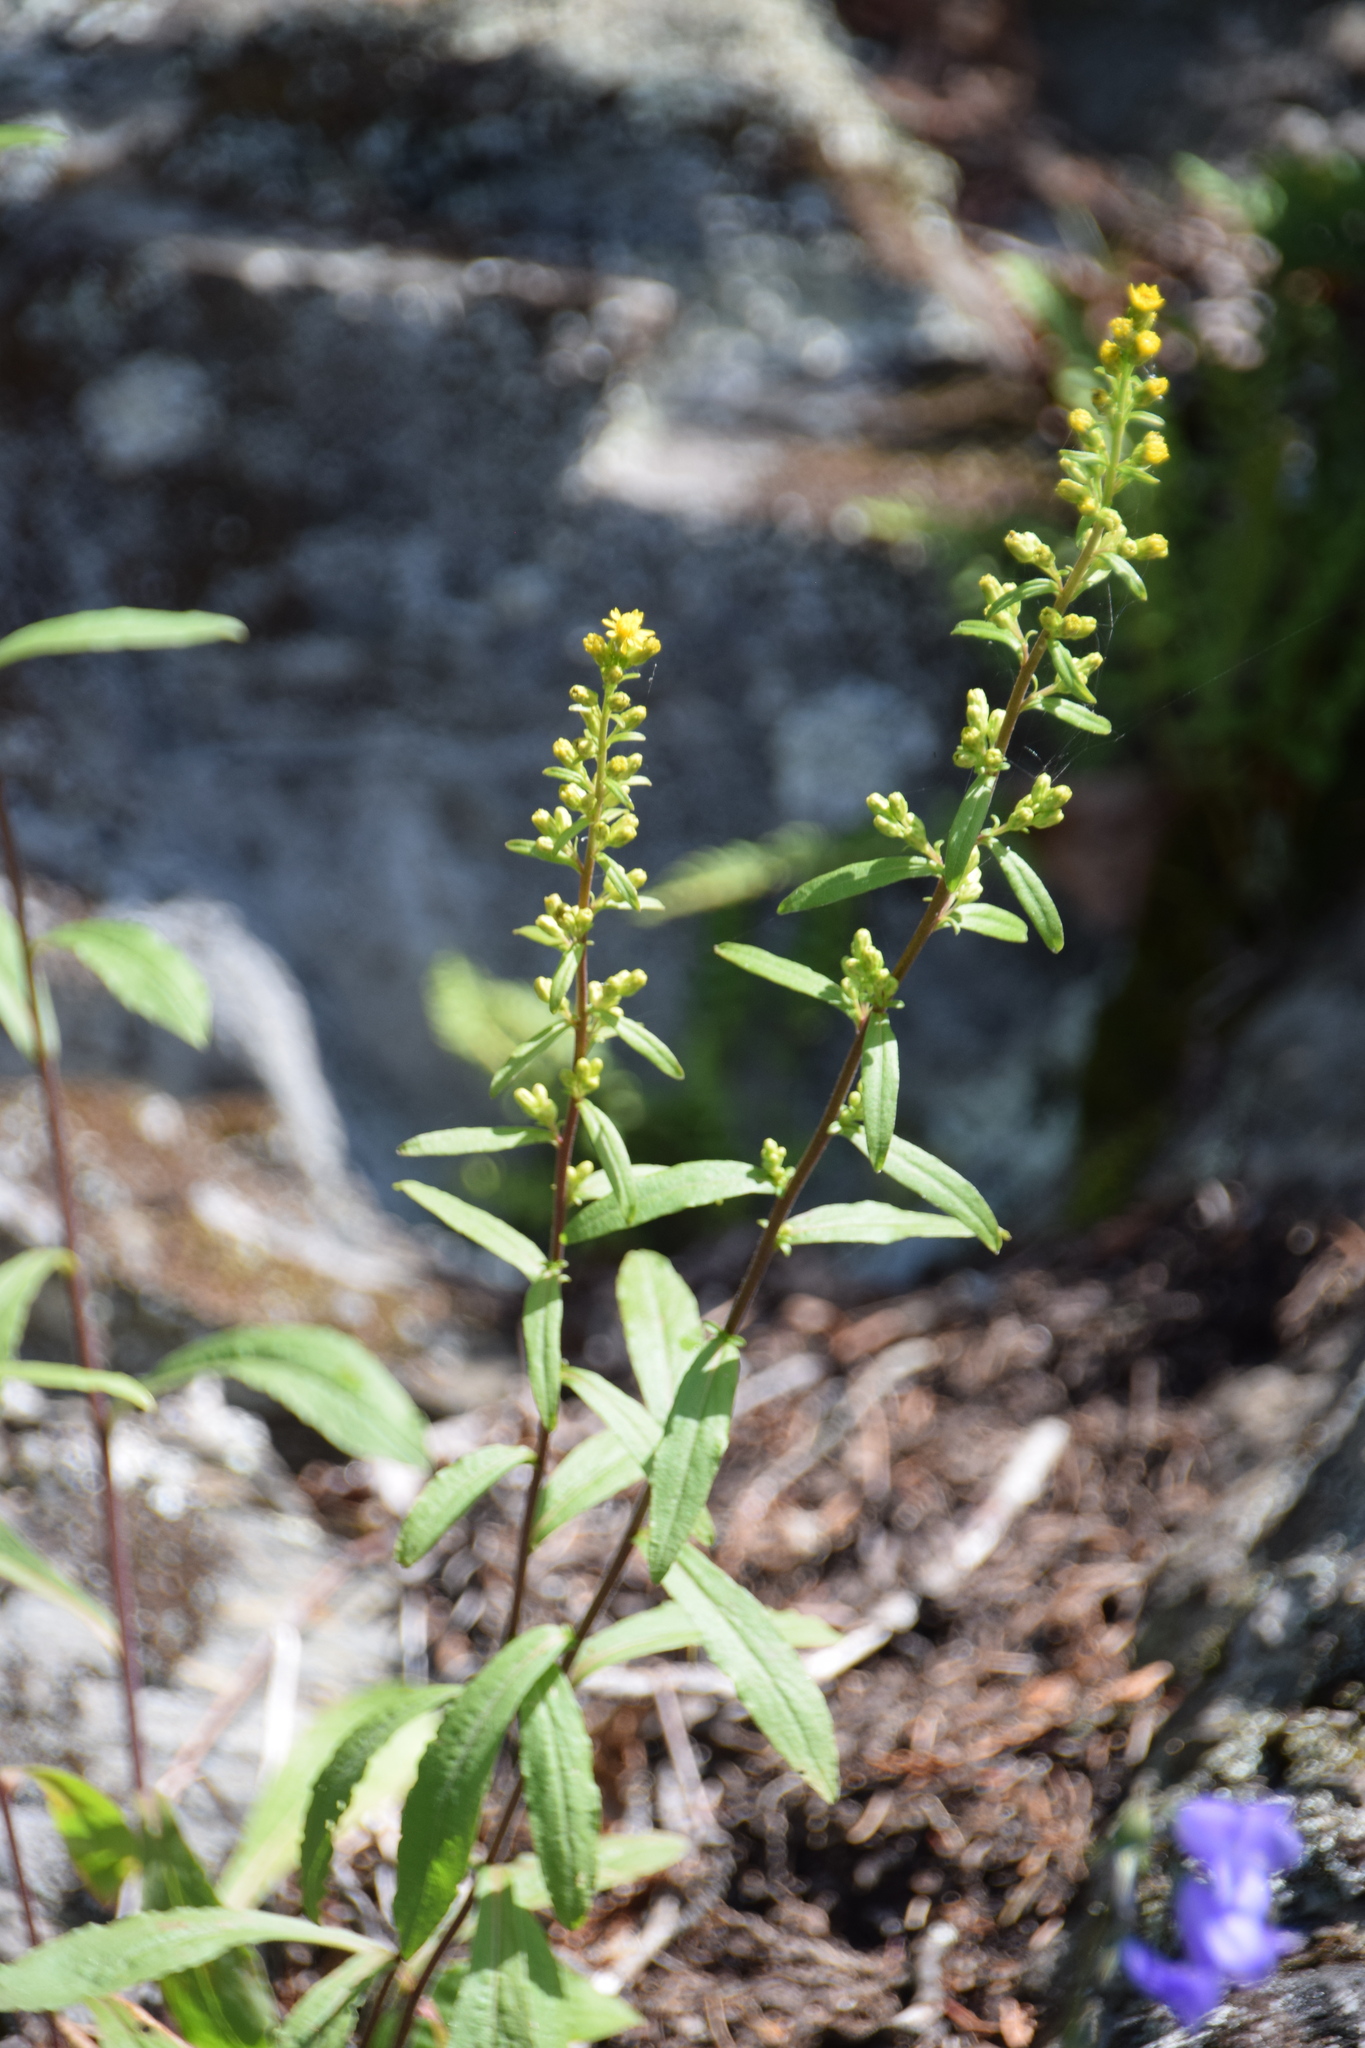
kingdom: Plantae
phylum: Tracheophyta
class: Magnoliopsida
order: Asterales
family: Asteraceae
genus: Solidago
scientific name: Solidago hispida
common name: Hairy goldenrod
